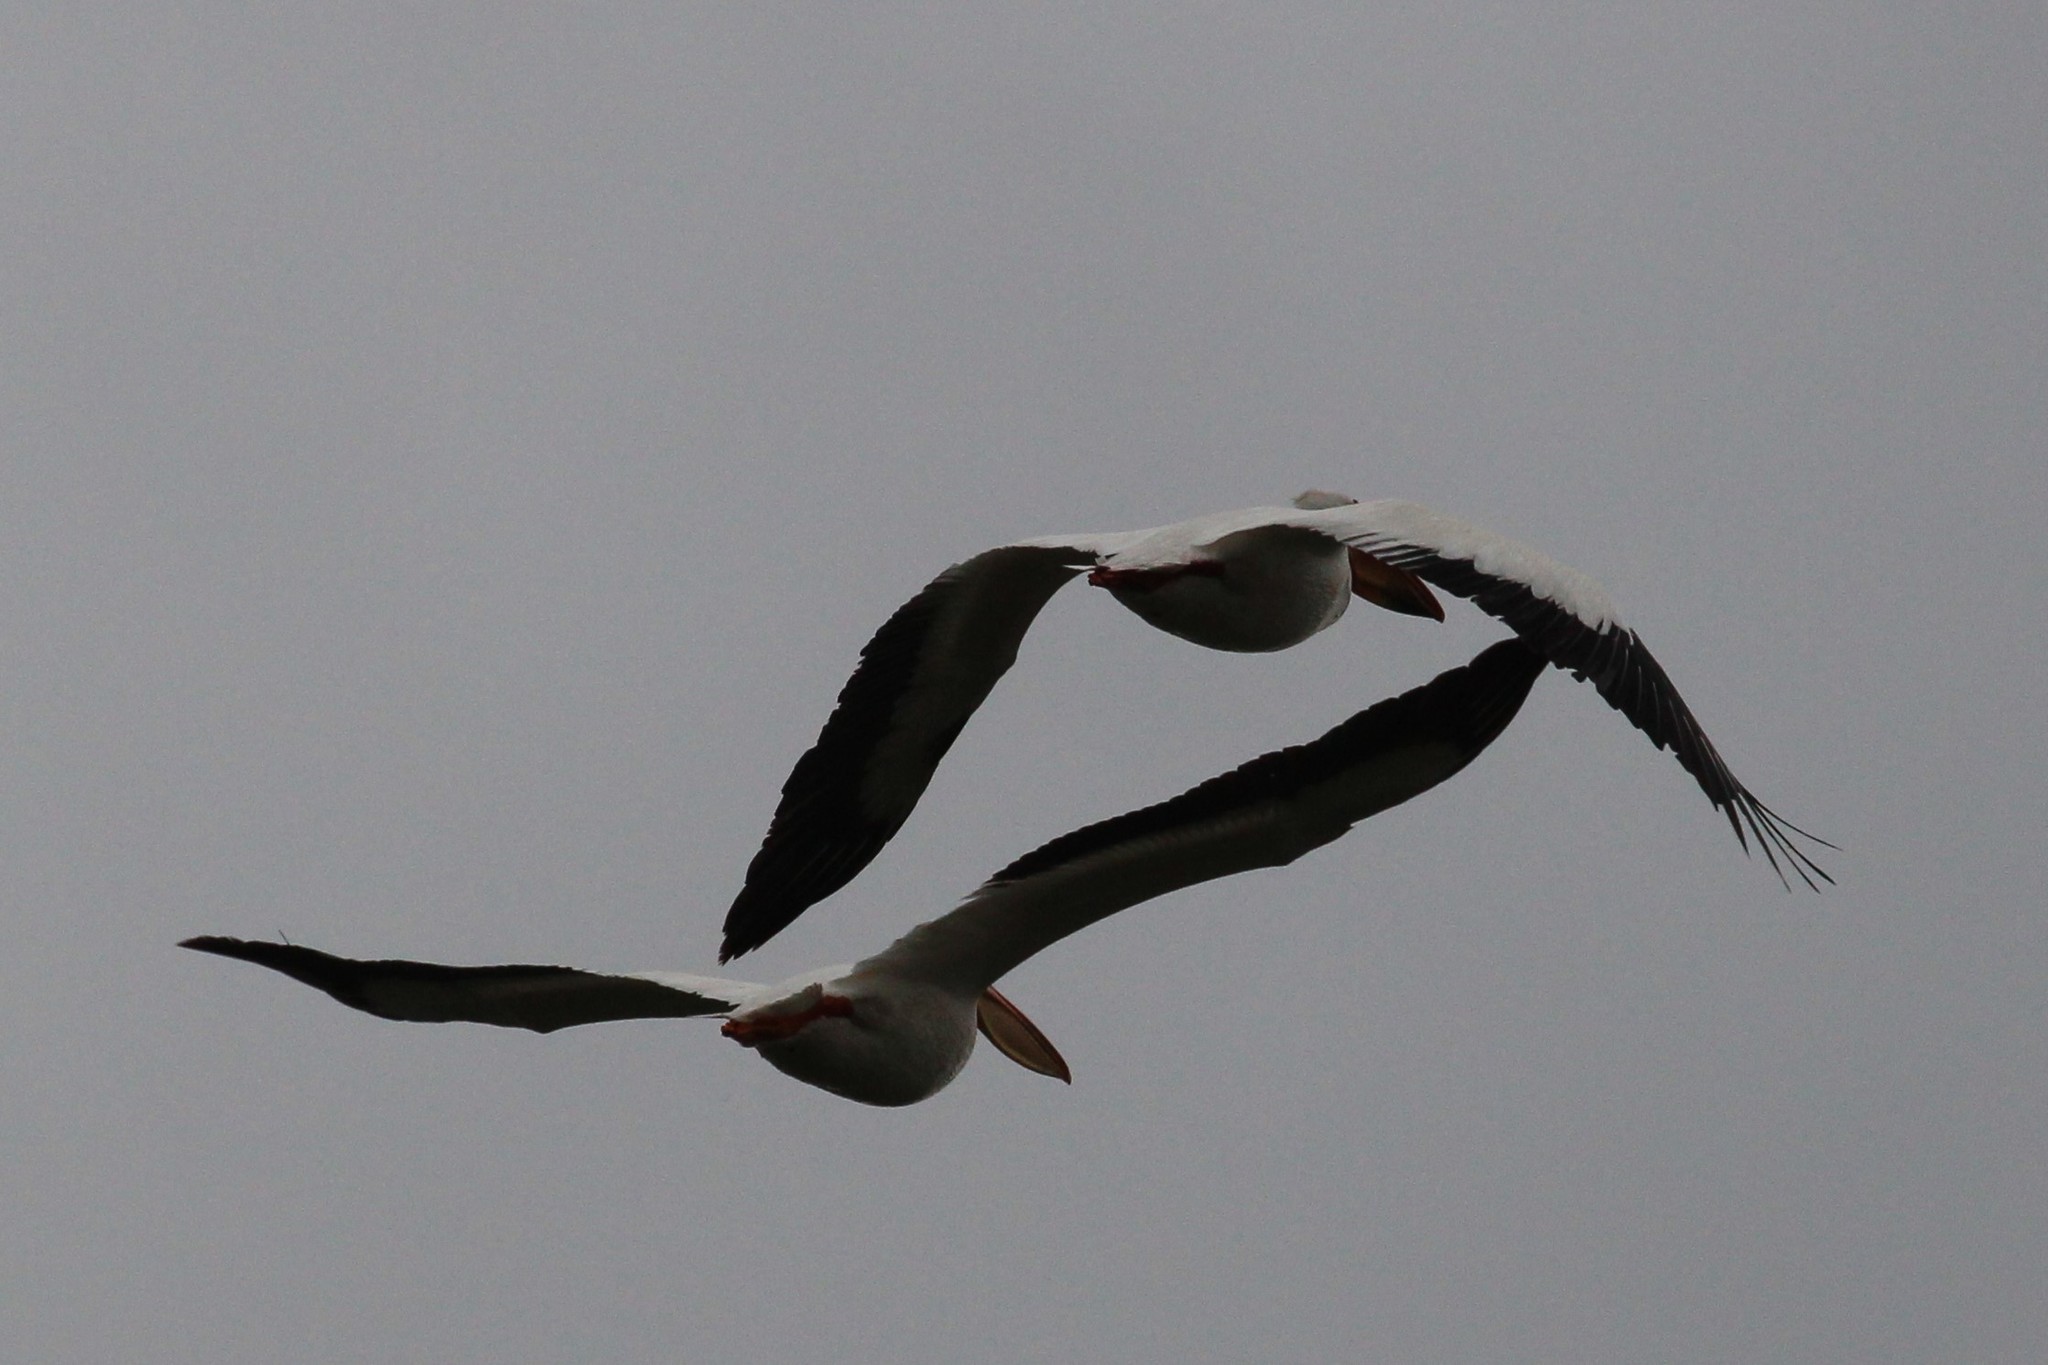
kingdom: Animalia
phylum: Chordata
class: Aves
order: Pelecaniformes
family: Pelecanidae
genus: Pelecanus
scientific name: Pelecanus erythrorhynchos
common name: American white pelican
